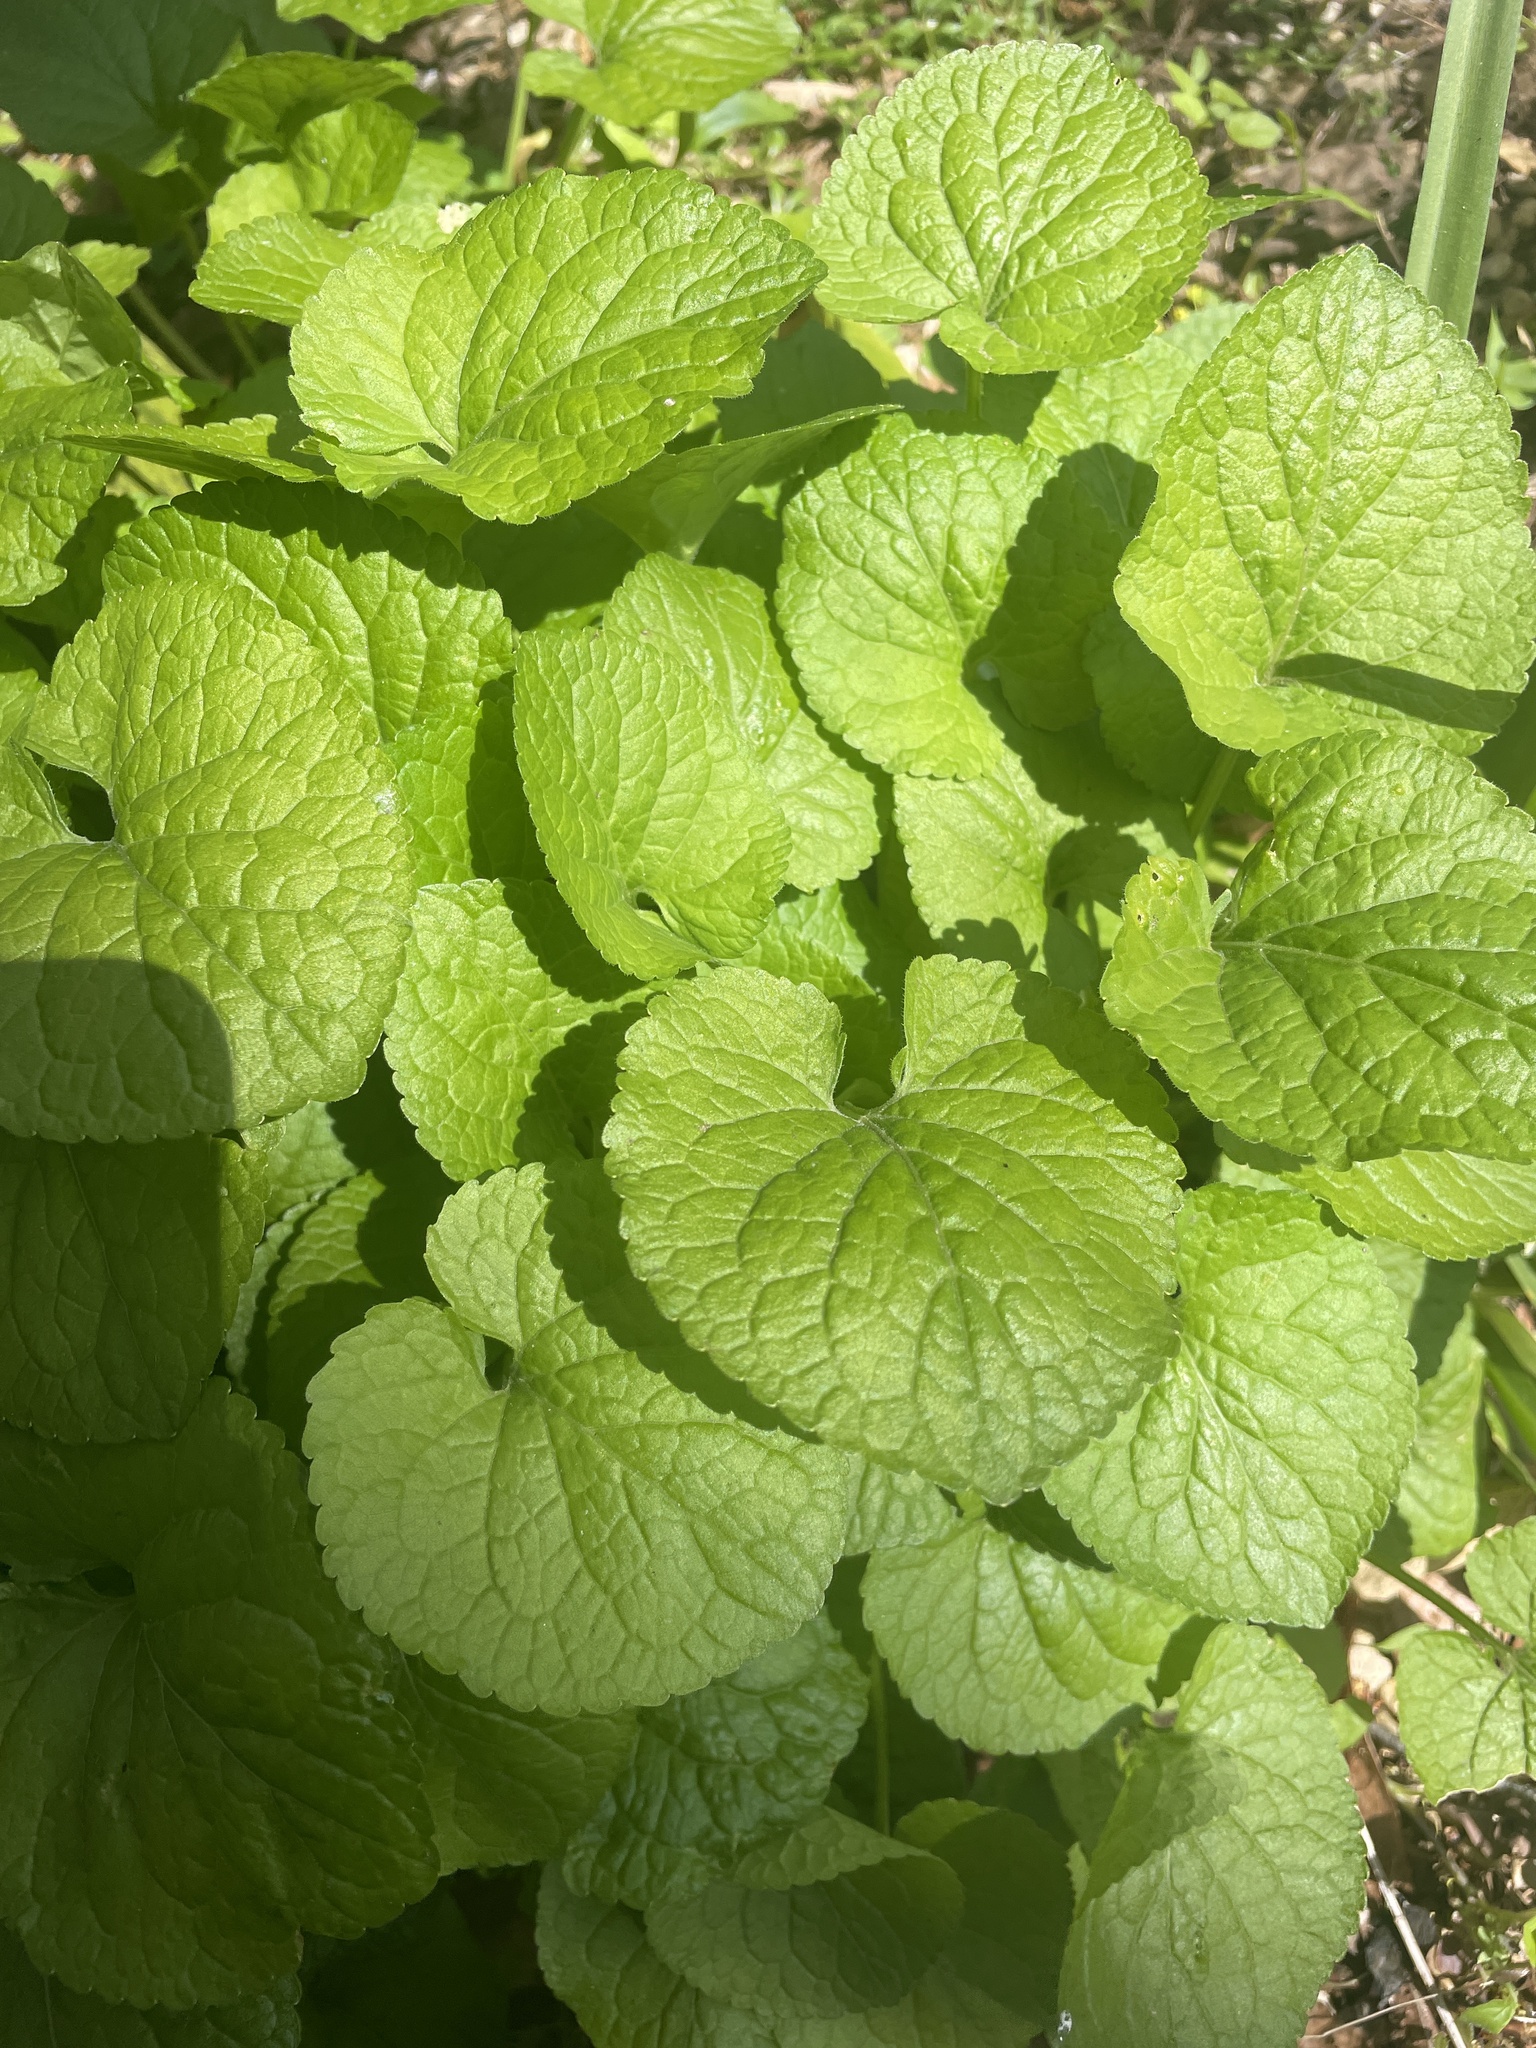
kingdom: Plantae
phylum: Tracheophyta
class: Magnoliopsida
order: Brassicales
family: Brassicaceae
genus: Alliaria
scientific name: Alliaria petiolata
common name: Garlic mustard
